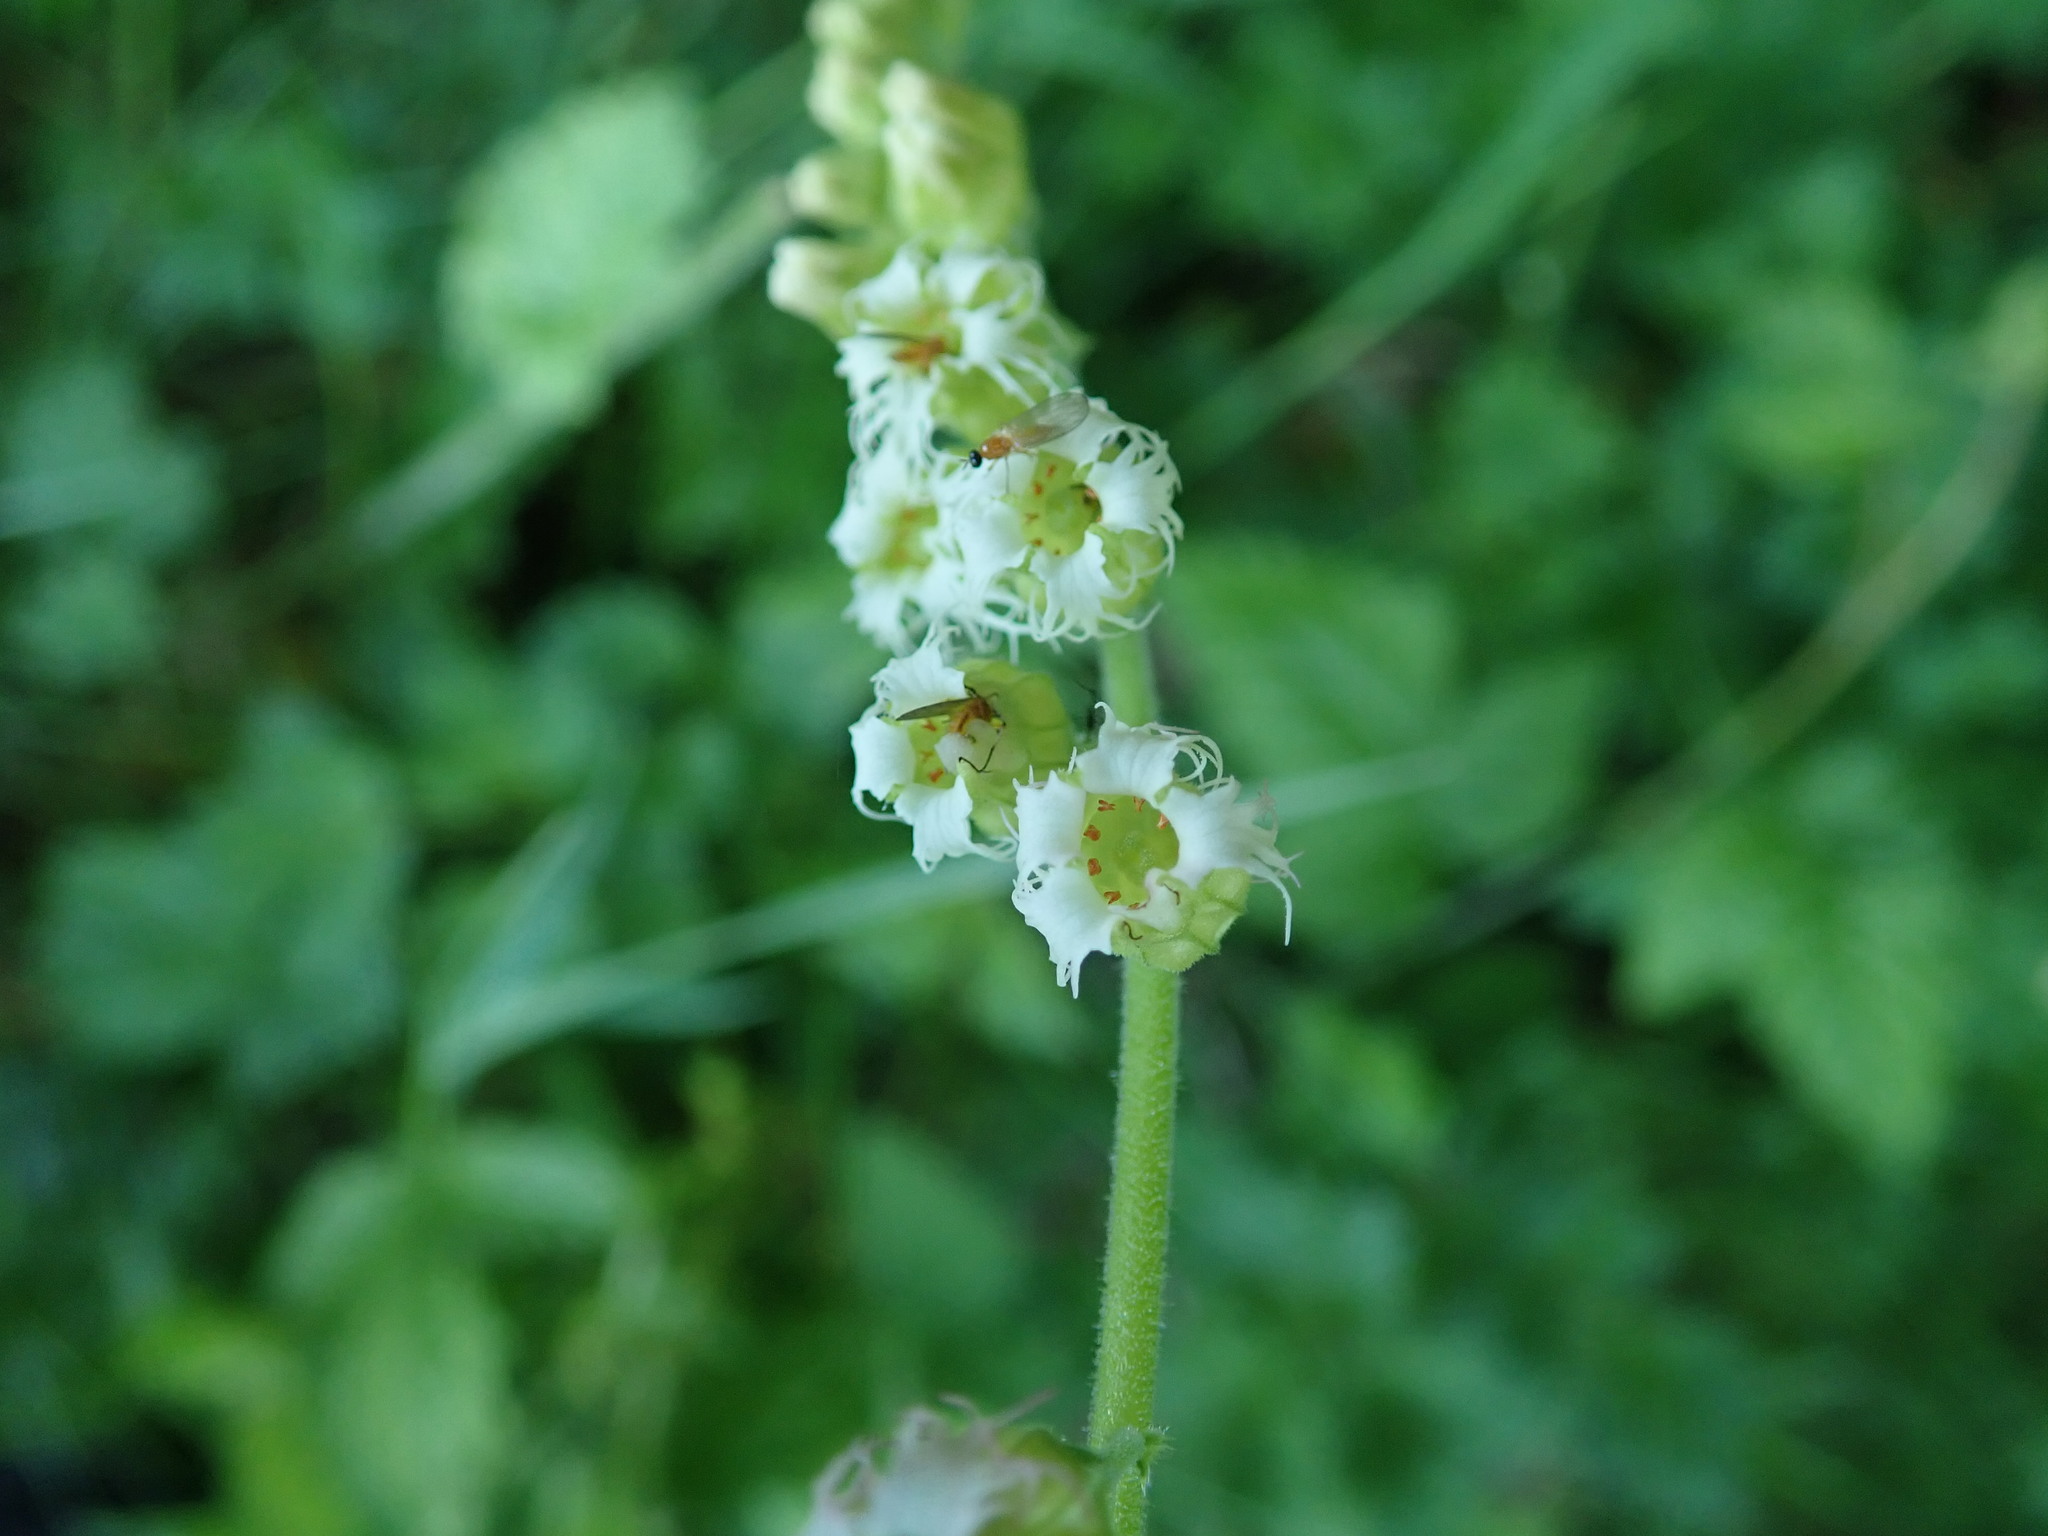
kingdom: Plantae
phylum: Tracheophyta
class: Magnoliopsida
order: Saxifragales
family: Saxifragaceae
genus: Tellima
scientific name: Tellima grandiflora
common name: Fringecups
